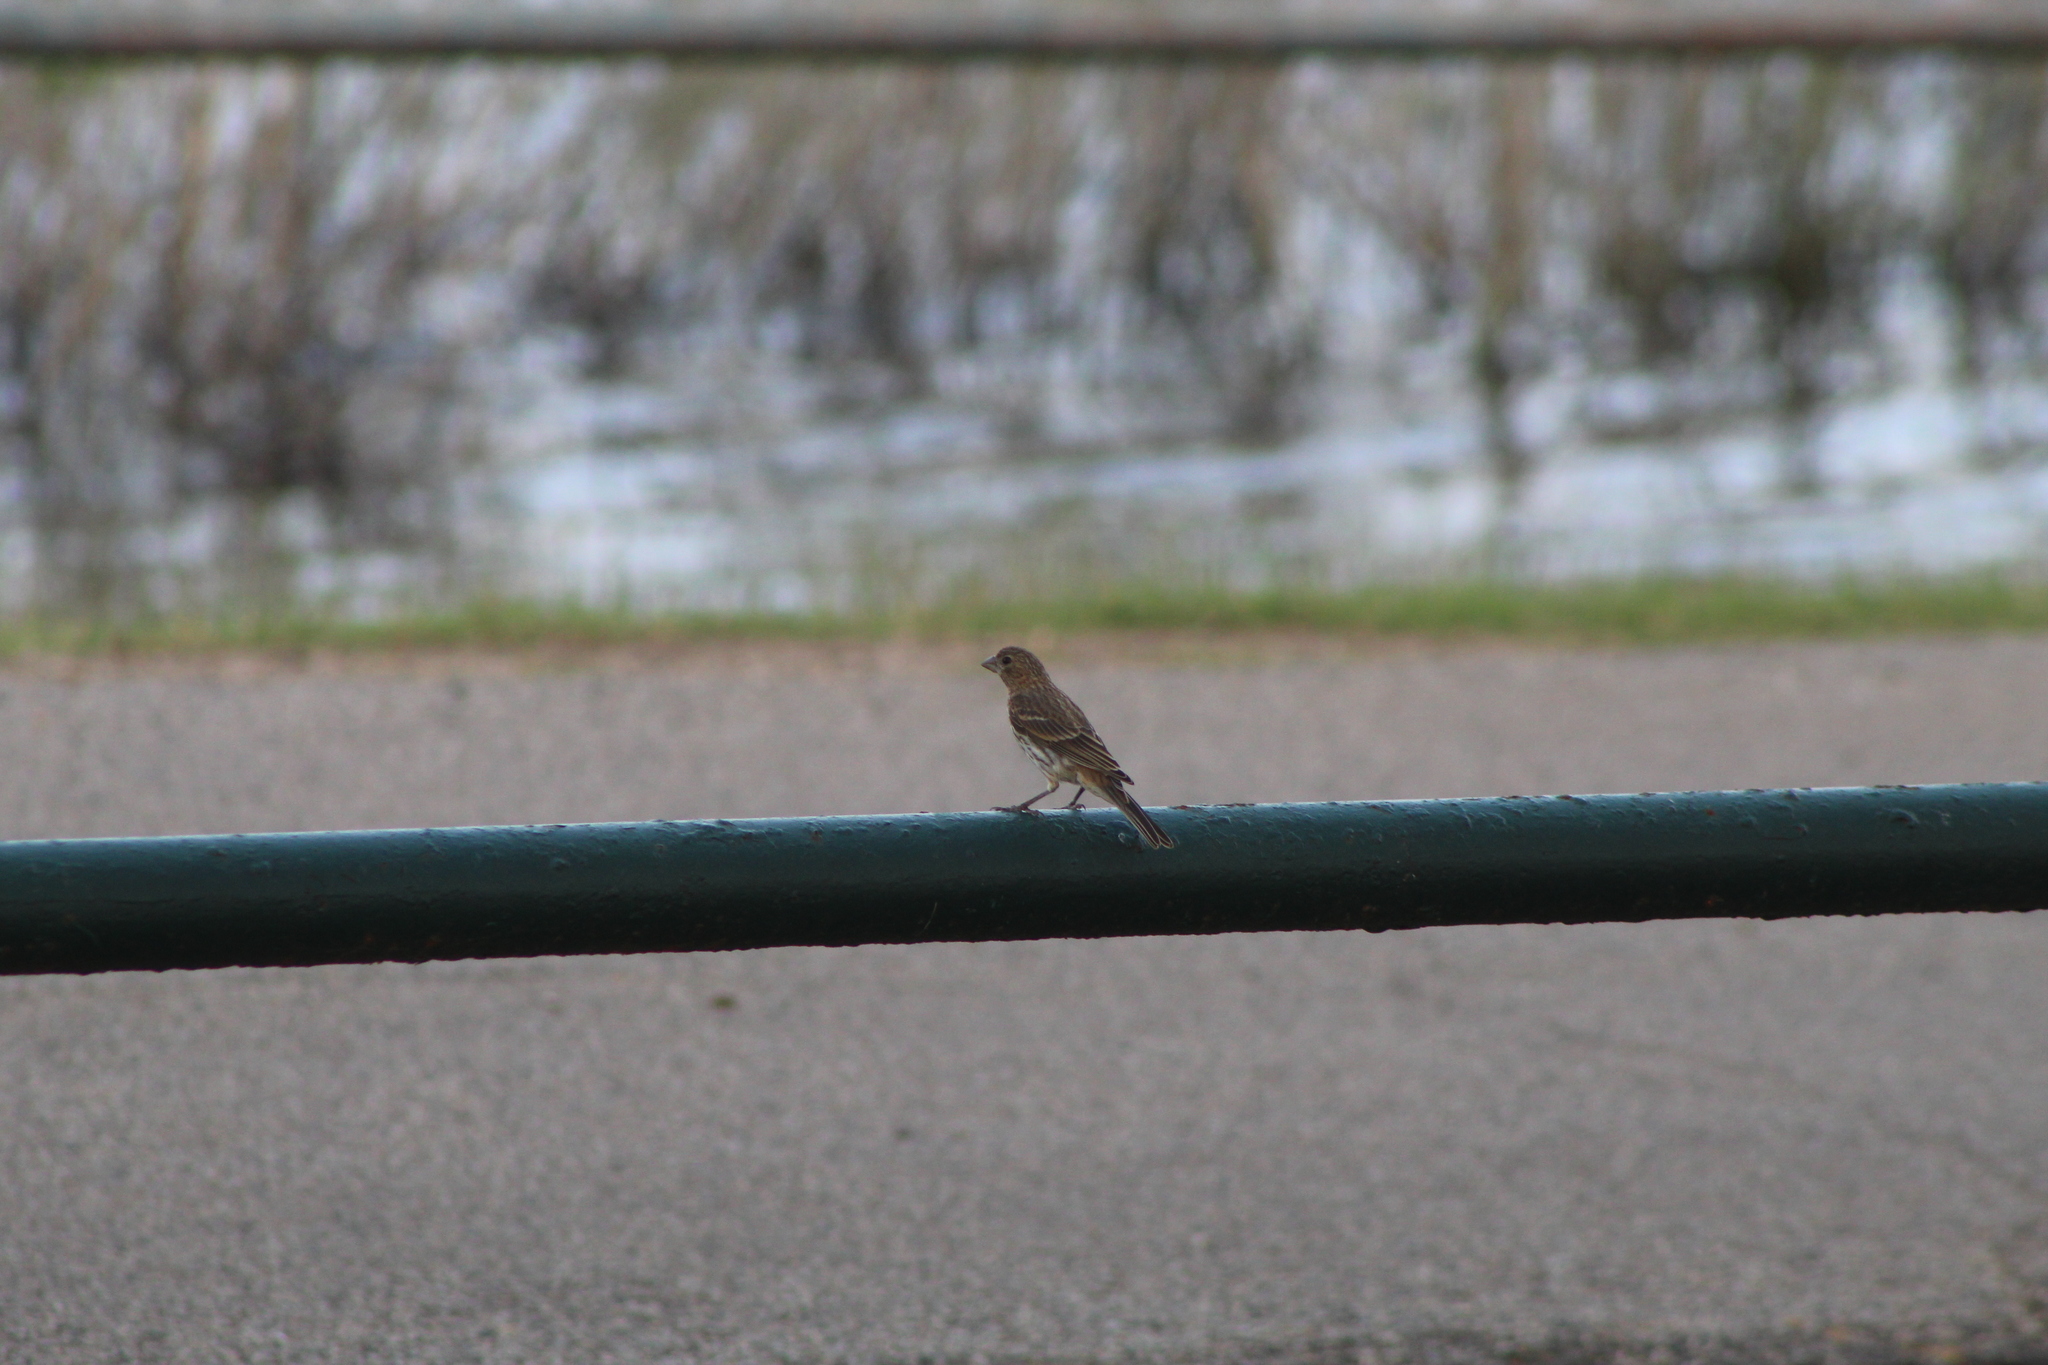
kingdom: Animalia
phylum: Chordata
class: Aves
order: Passeriformes
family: Fringillidae
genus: Haemorhous
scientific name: Haemorhous mexicanus
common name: House finch
